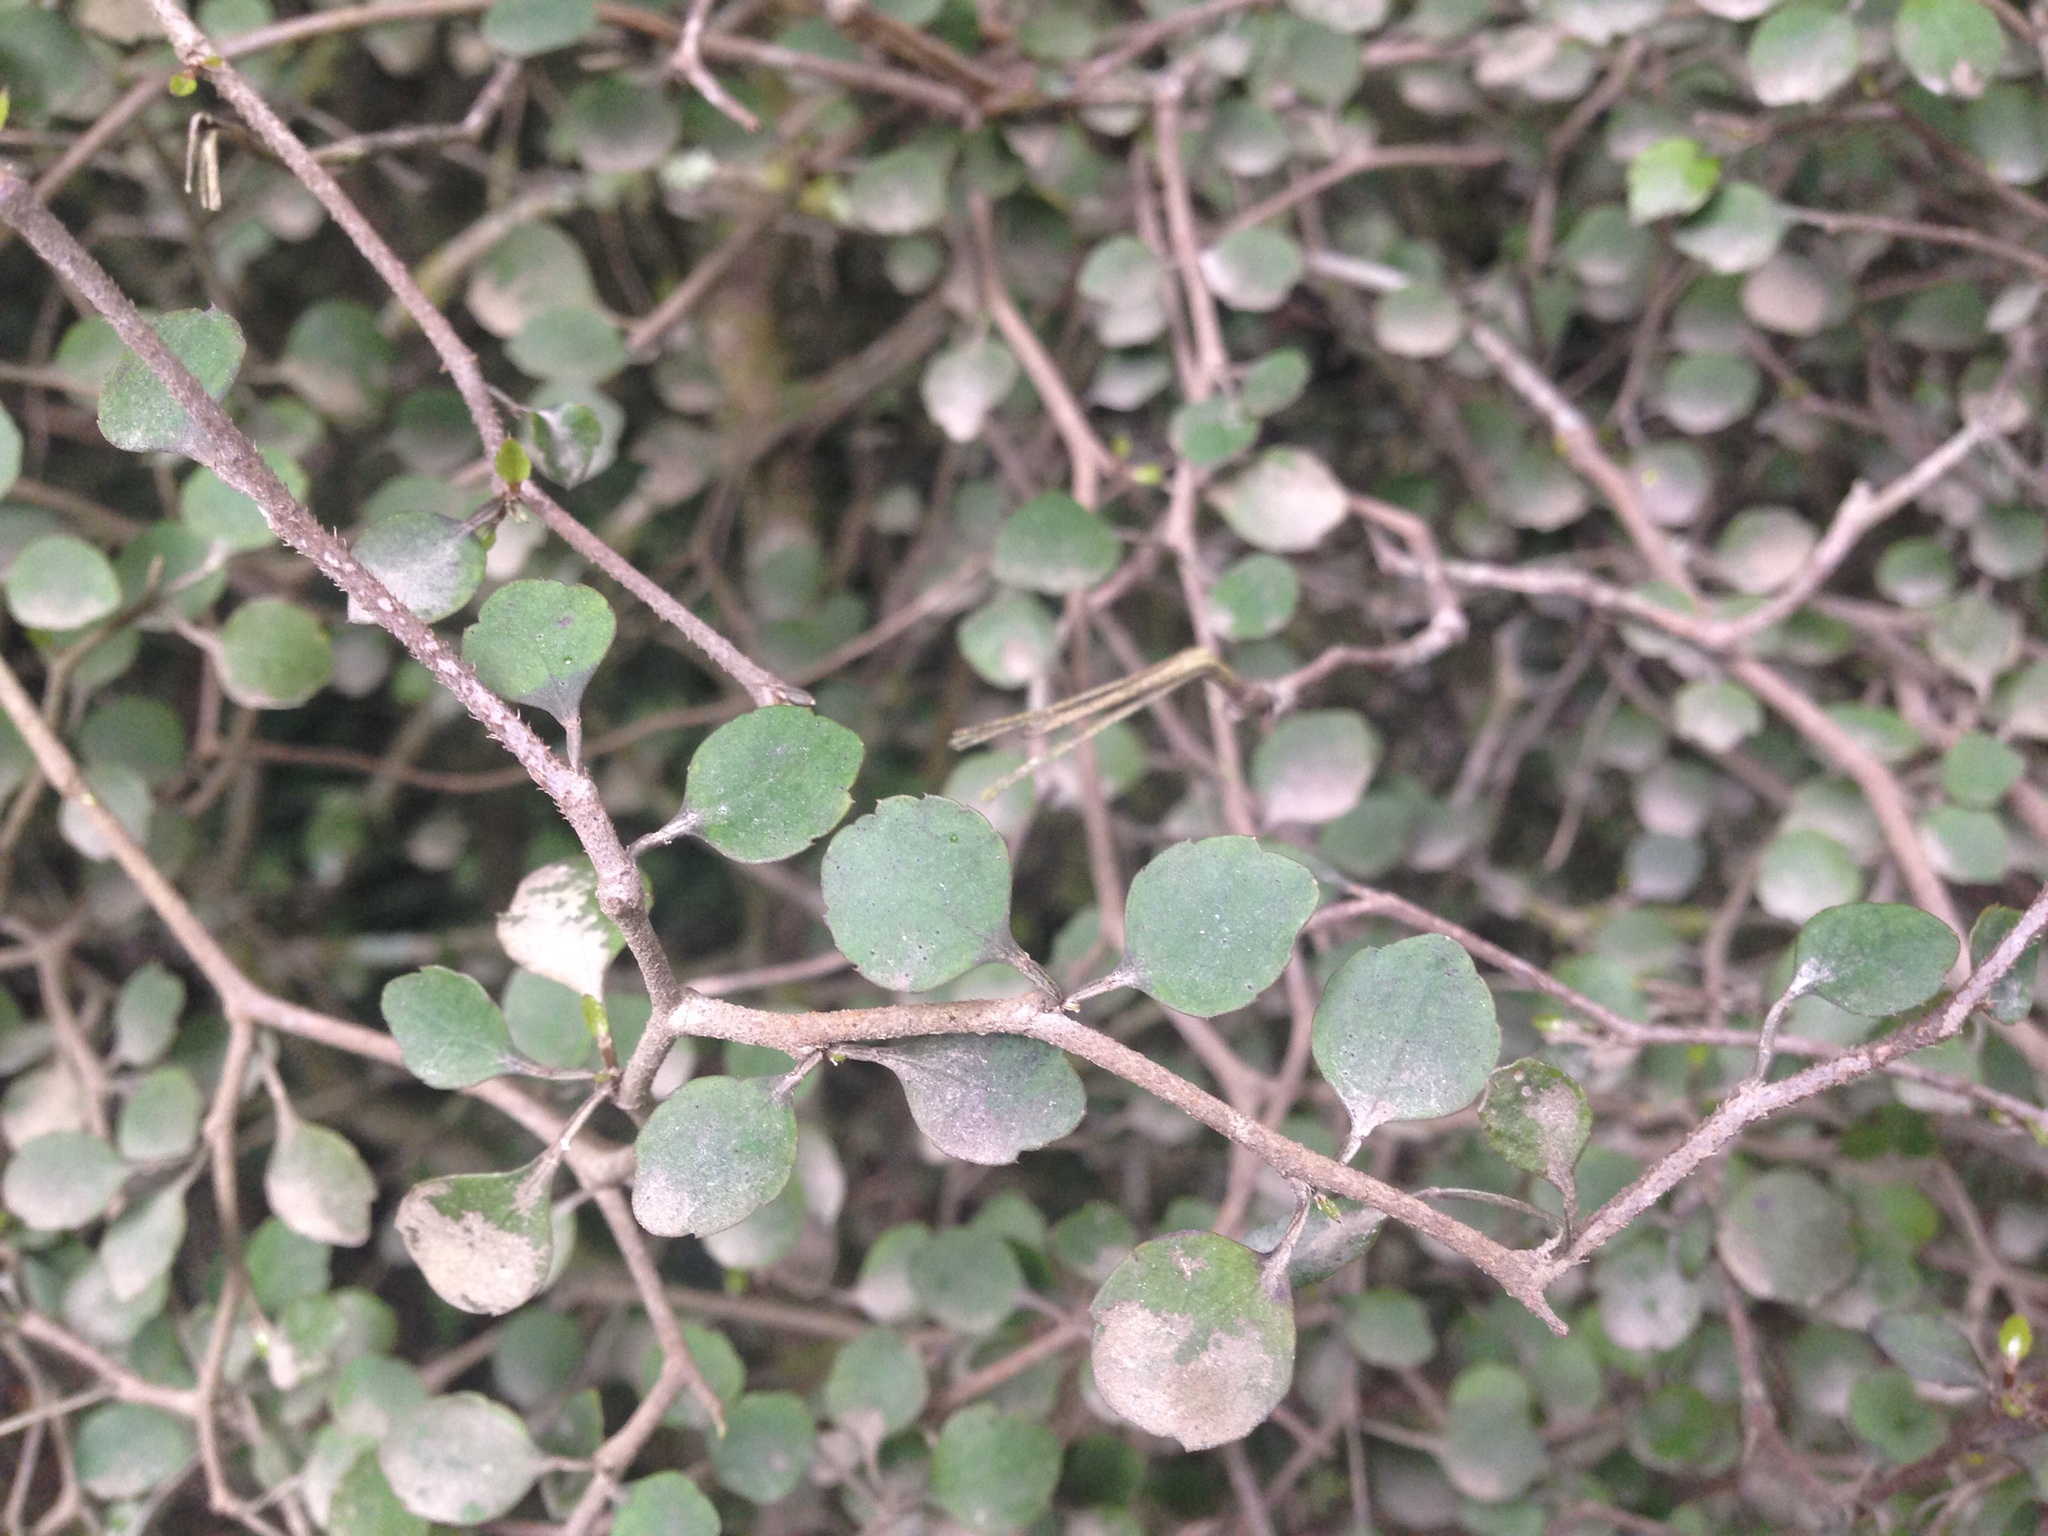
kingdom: Plantae
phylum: Tracheophyta
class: Magnoliopsida
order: Apiales
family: Araliaceae
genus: Raukaua
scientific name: Raukaua anomalus
